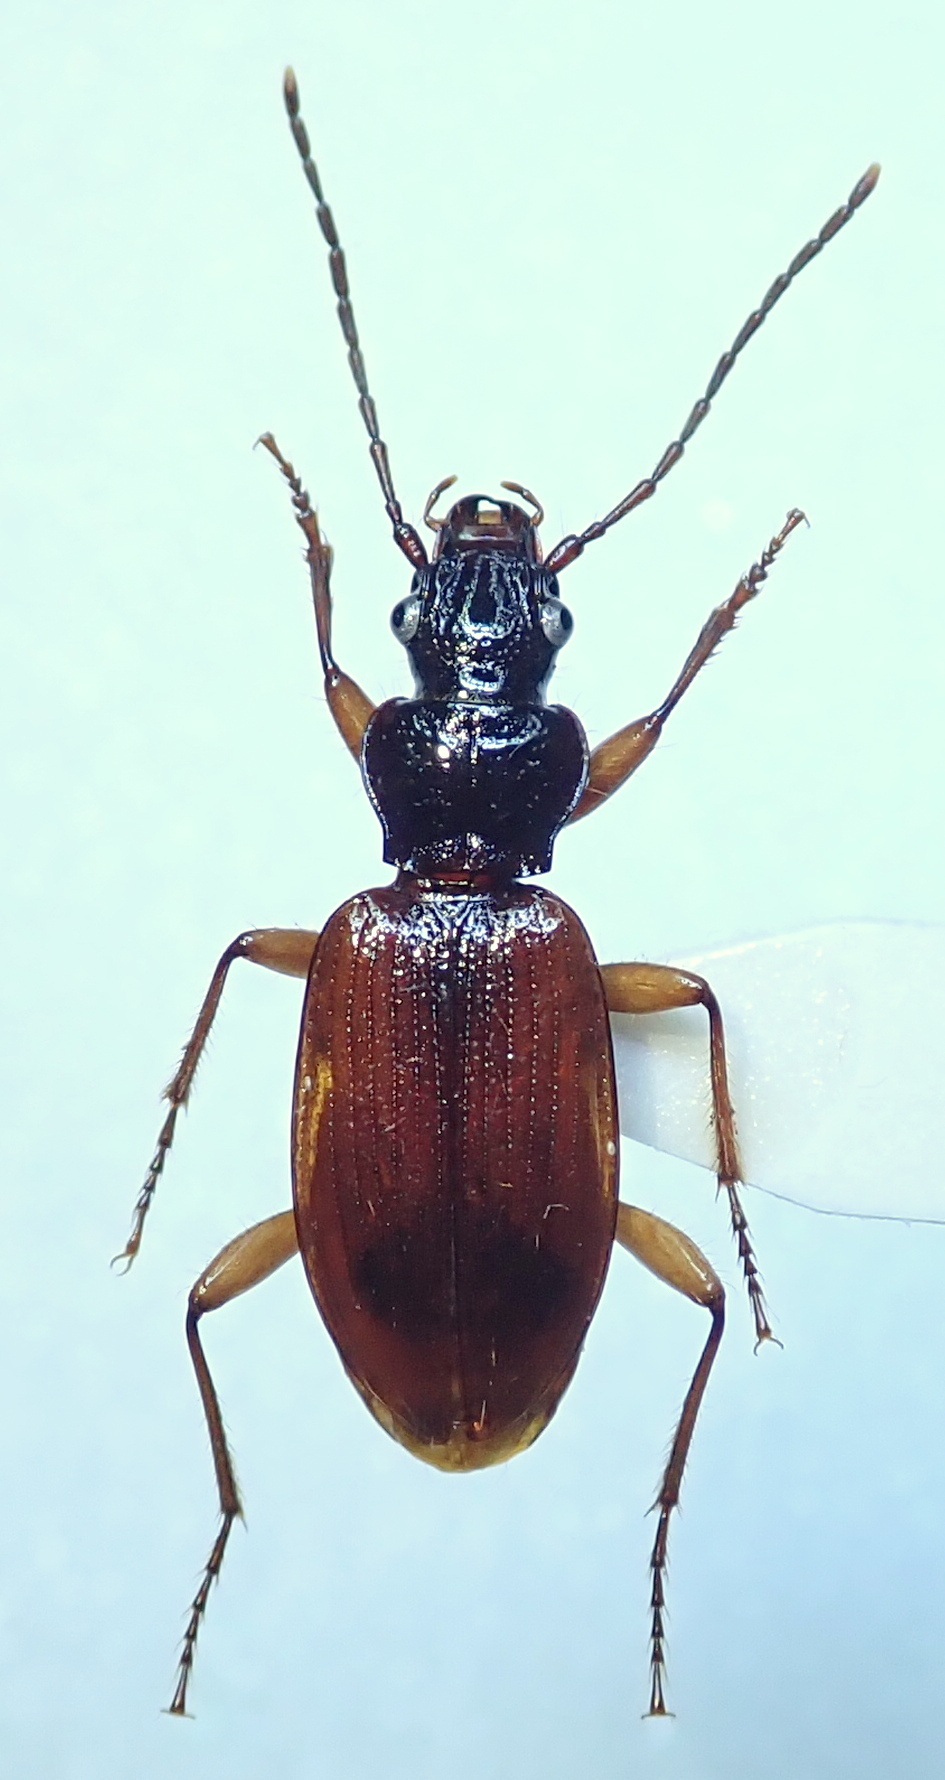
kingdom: Animalia
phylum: Arthropoda
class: Insecta
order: Coleoptera
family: Carabidae
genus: Penetretus
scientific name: Penetretus rufipennis
